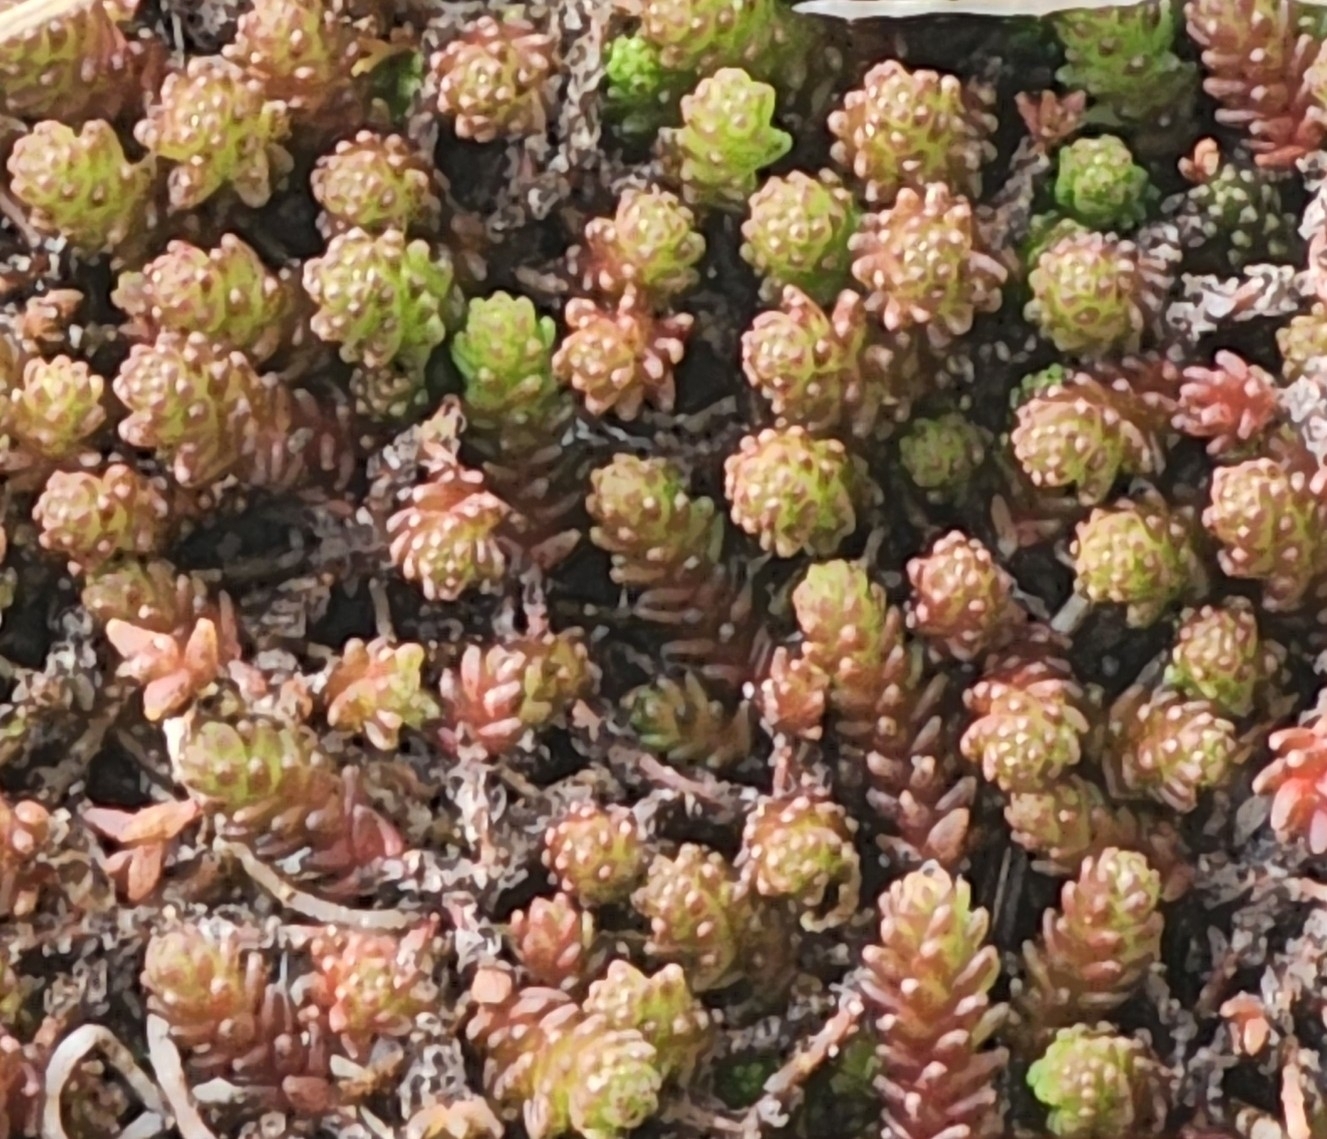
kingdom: Plantae
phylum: Tracheophyta
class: Magnoliopsida
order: Saxifragales
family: Crassulaceae
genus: Sedum
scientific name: Sedum acre
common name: Biting stonecrop
